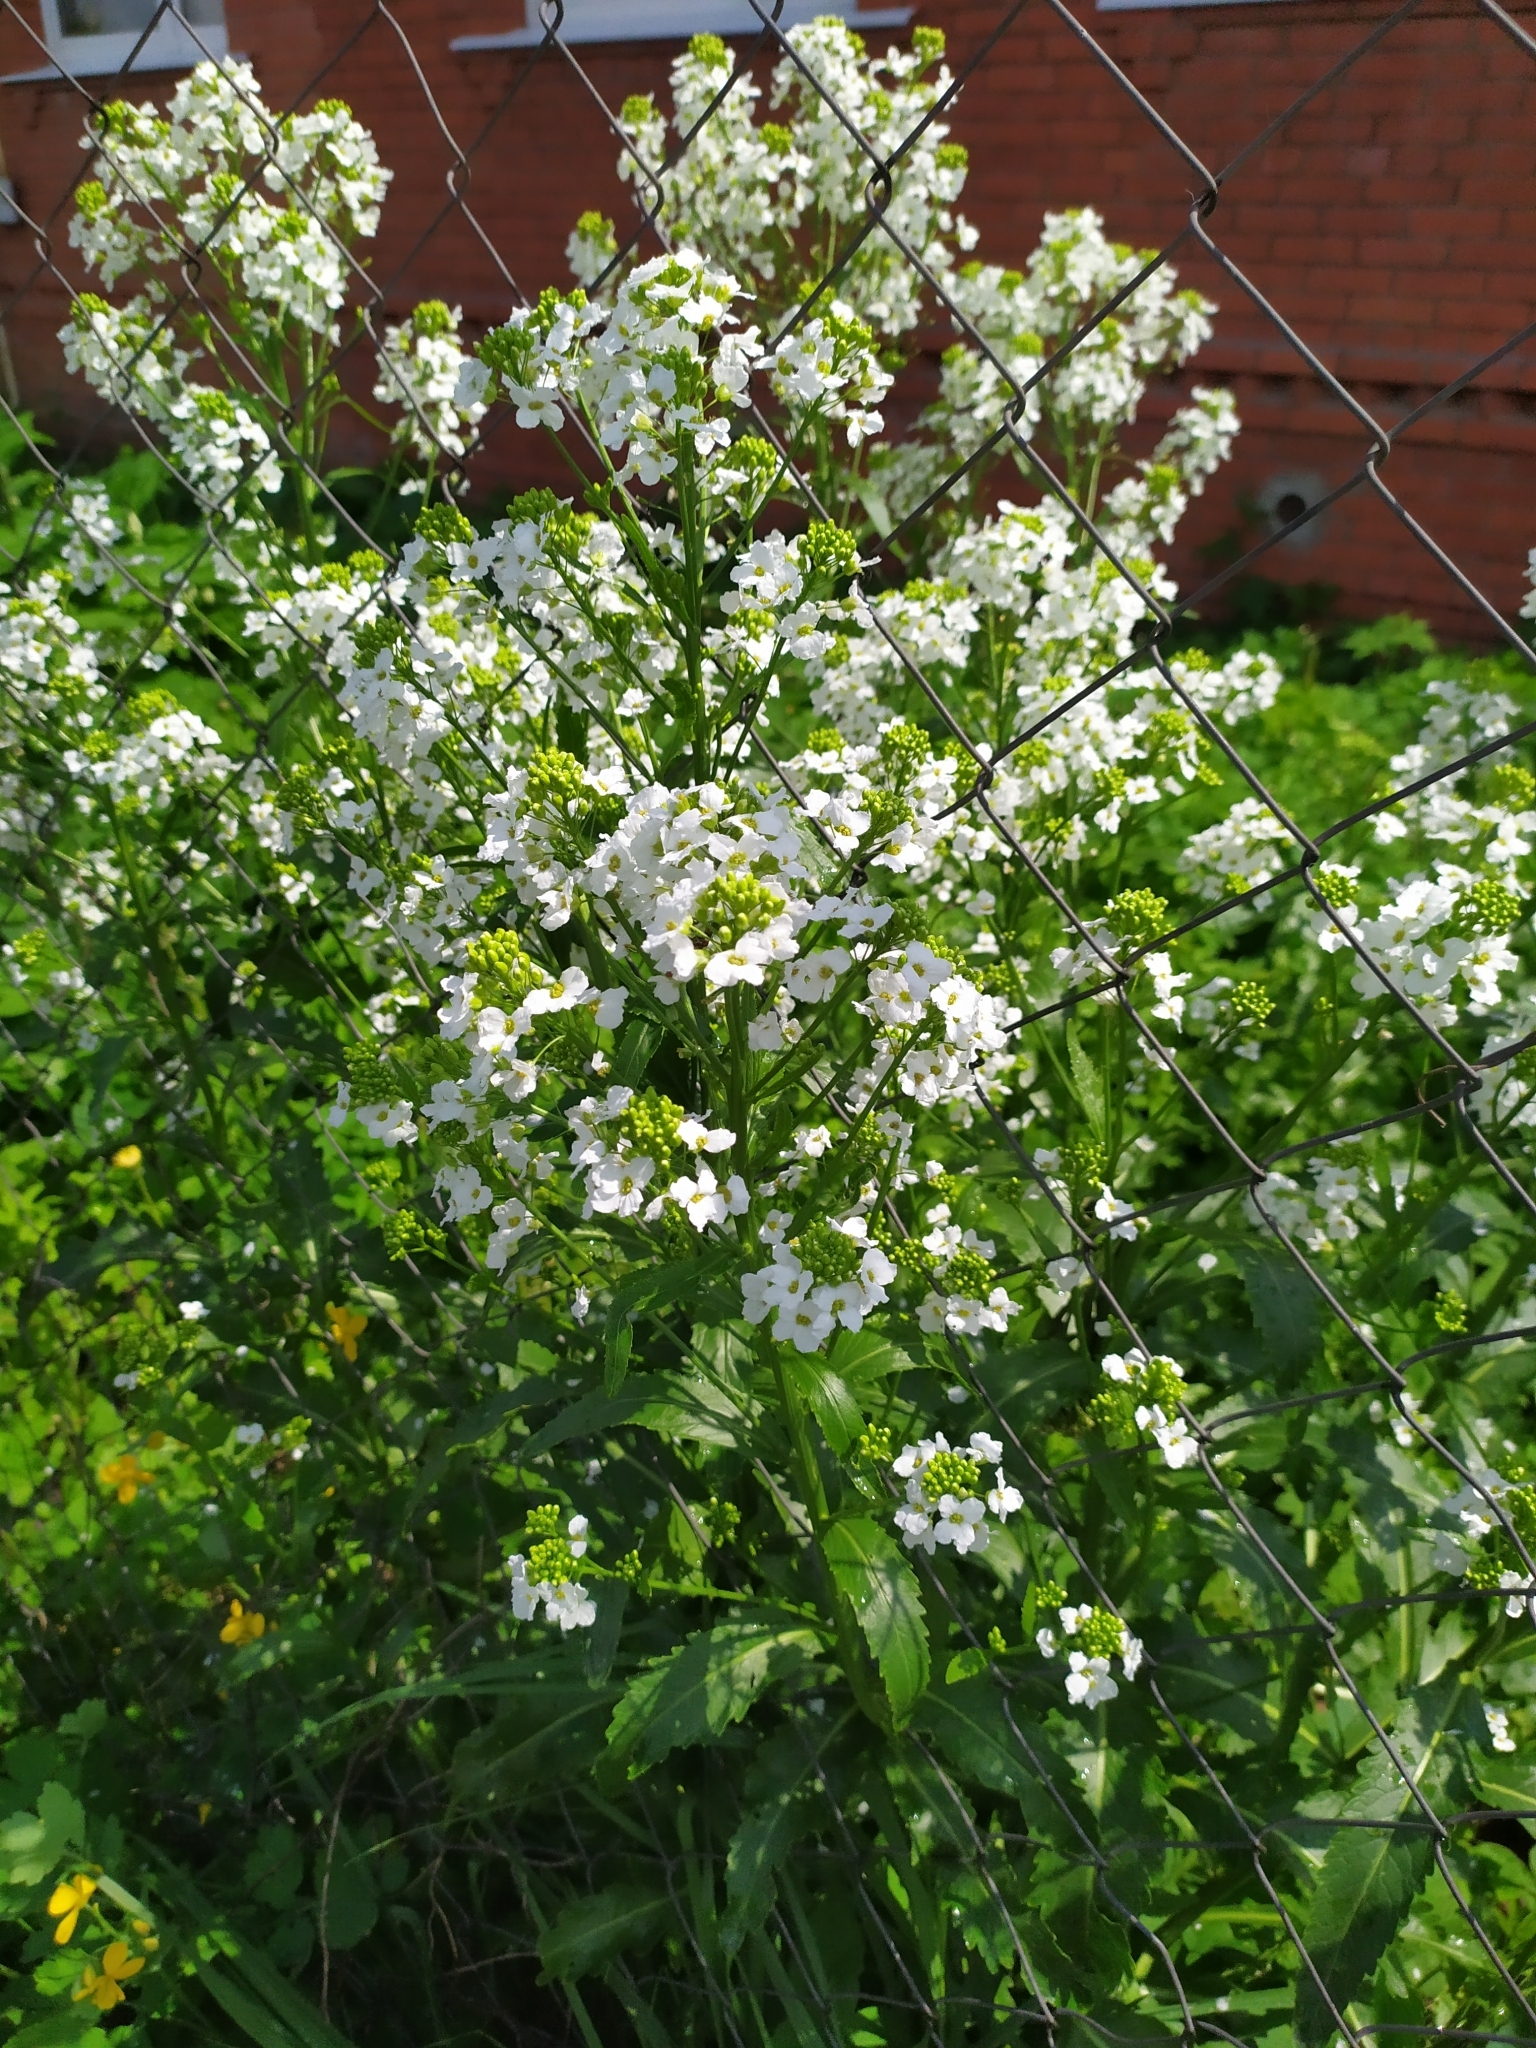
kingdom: Plantae
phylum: Tracheophyta
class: Magnoliopsida
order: Brassicales
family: Brassicaceae
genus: Armoracia
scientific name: Armoracia rusticana
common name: Horseradish
